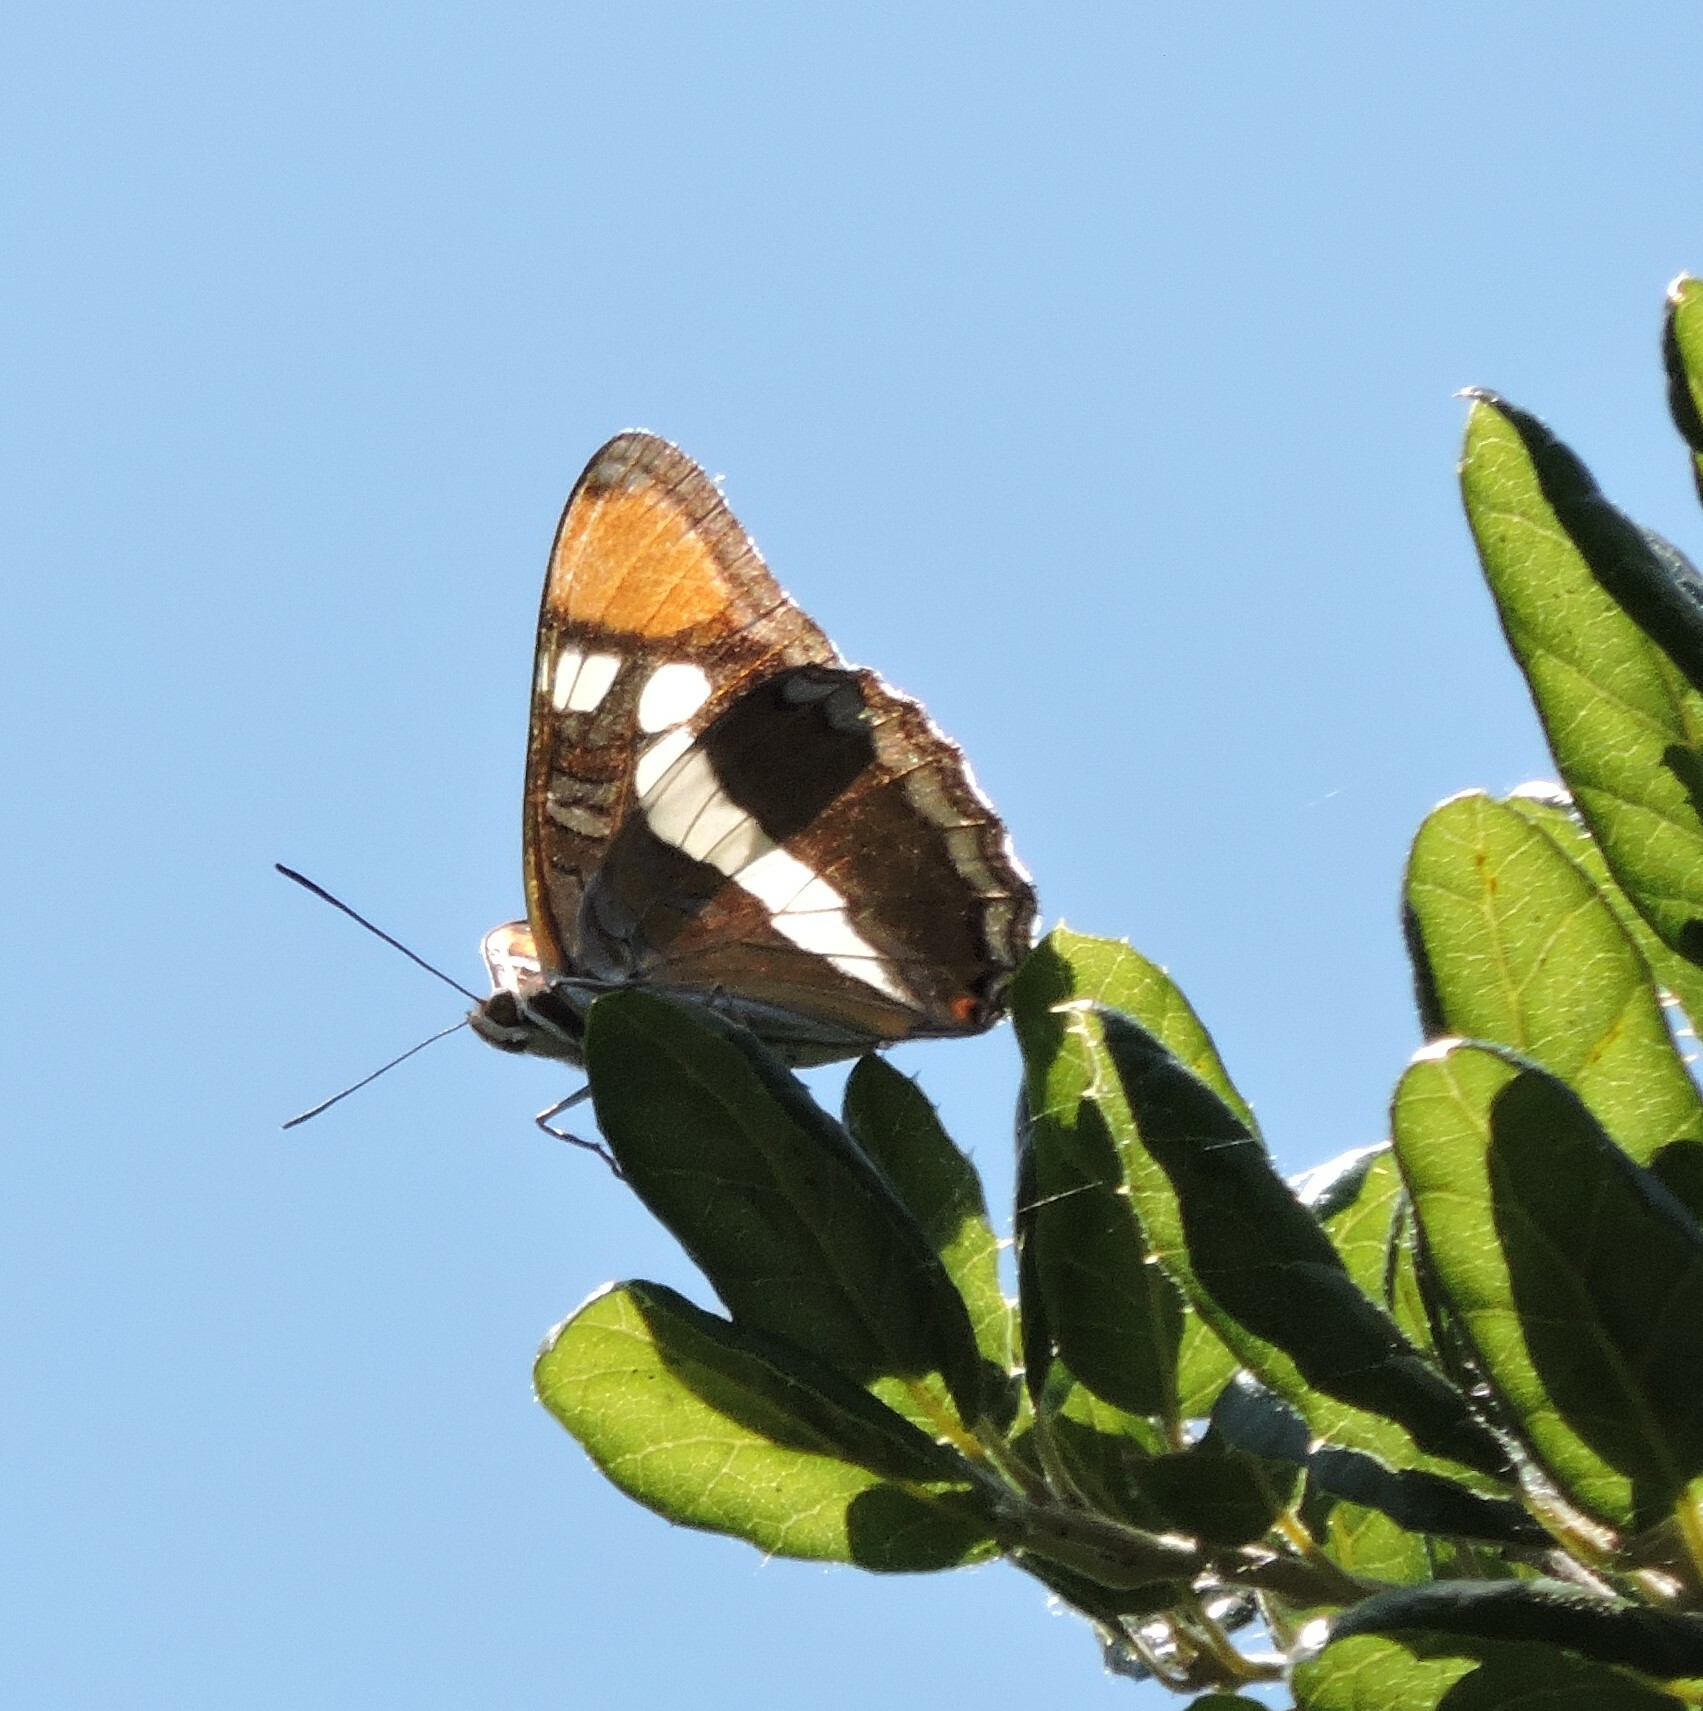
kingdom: Animalia
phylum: Arthropoda
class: Insecta
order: Lepidoptera
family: Nymphalidae
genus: Limenitis
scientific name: Limenitis bredowii
